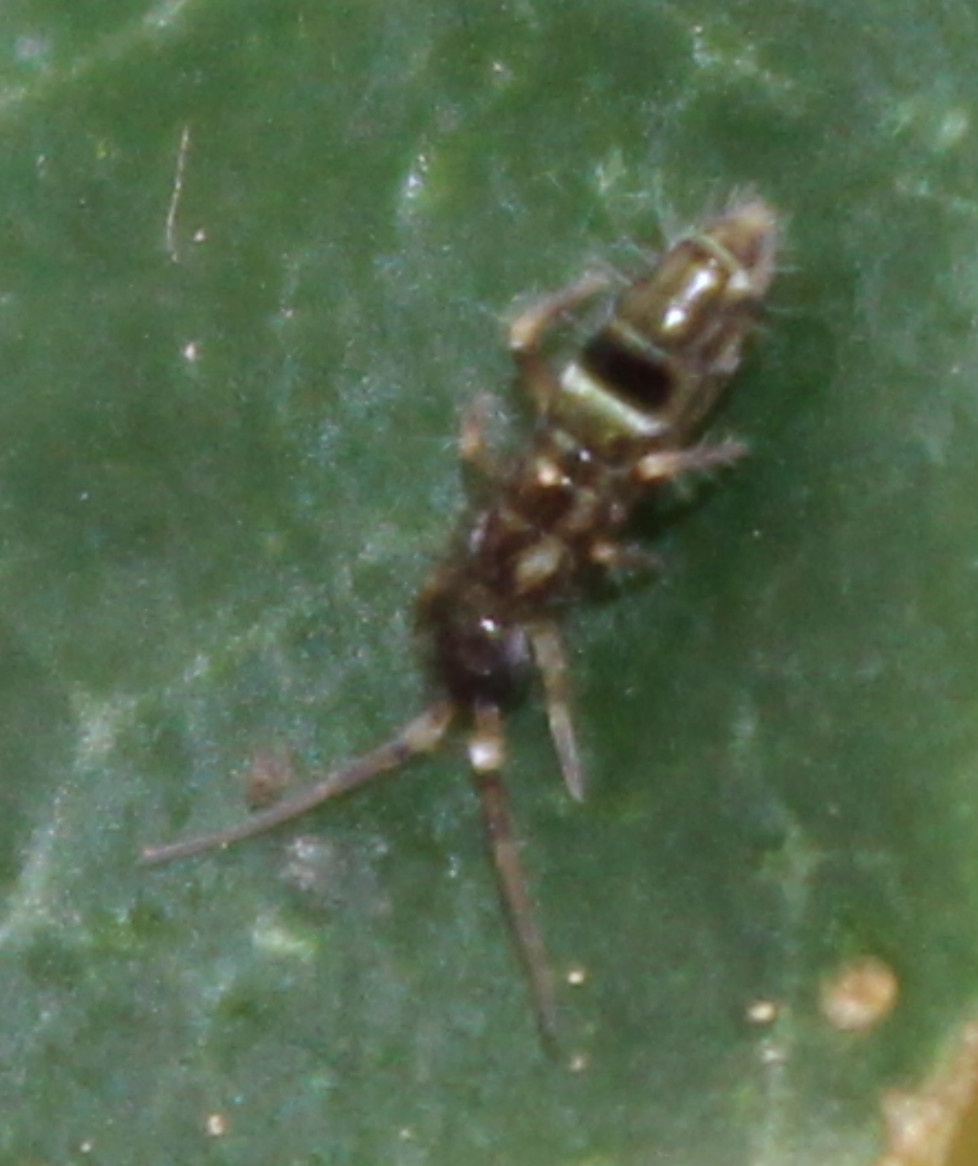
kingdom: Animalia
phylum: Arthropoda
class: Collembola
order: Entomobryomorpha
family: Orchesellidae
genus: Orchesella
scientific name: Orchesella cincta
